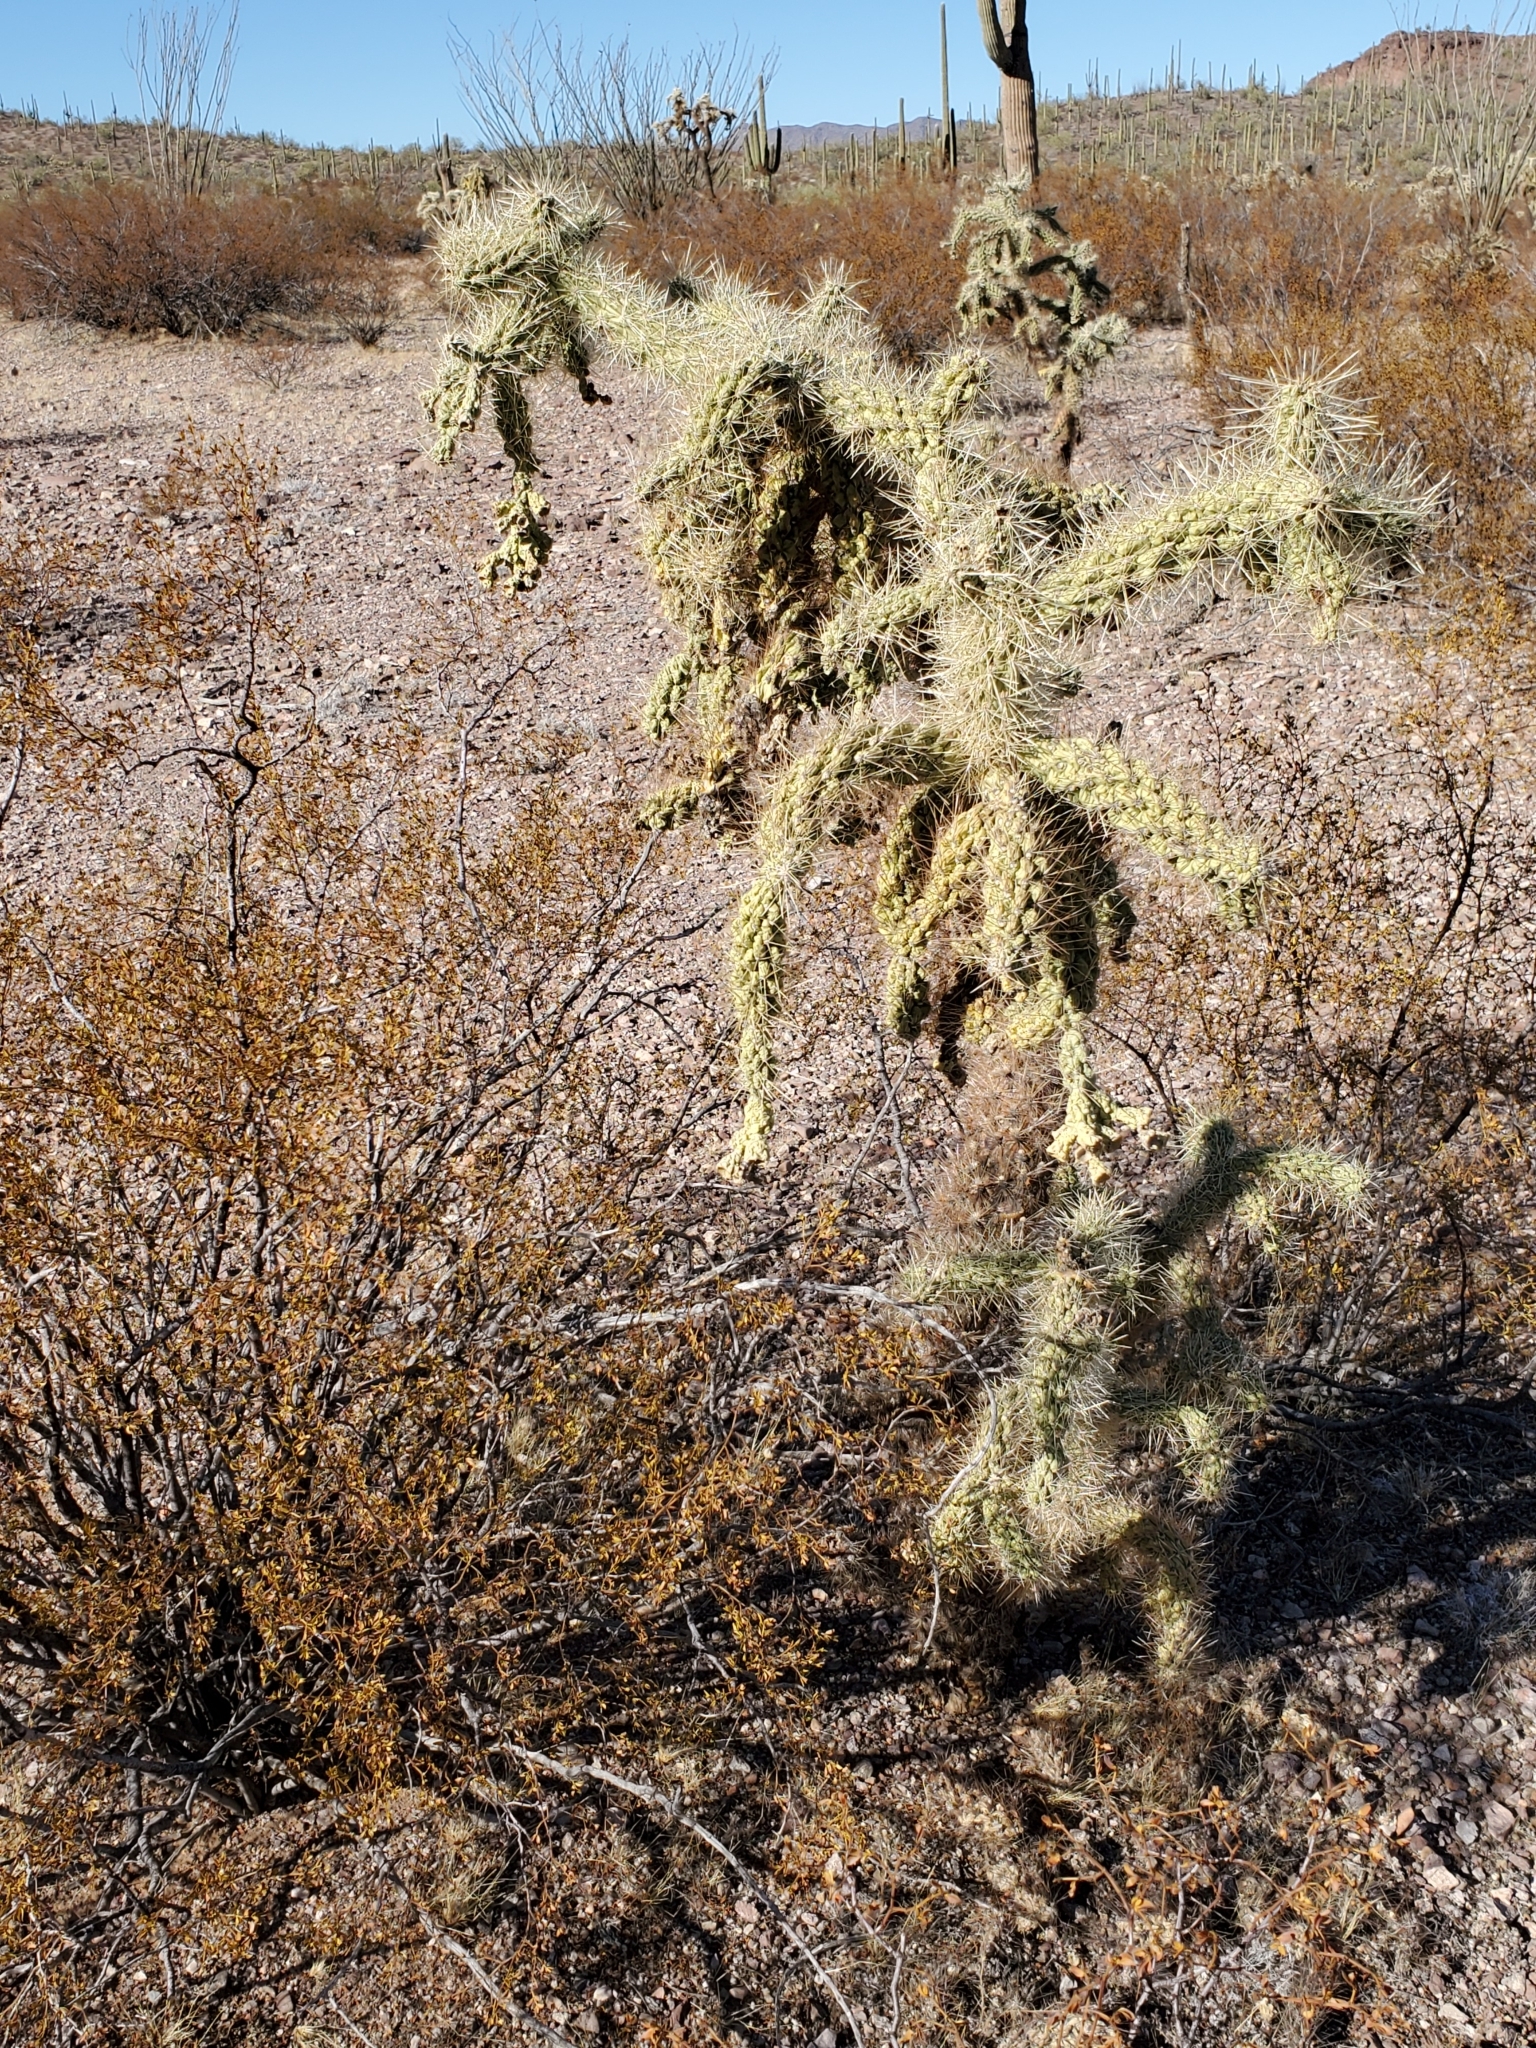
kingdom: Plantae
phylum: Tracheophyta
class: Magnoliopsida
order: Caryophyllales
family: Cactaceae
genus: Cylindropuntia
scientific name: Cylindropuntia fulgida
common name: Jumping cholla
